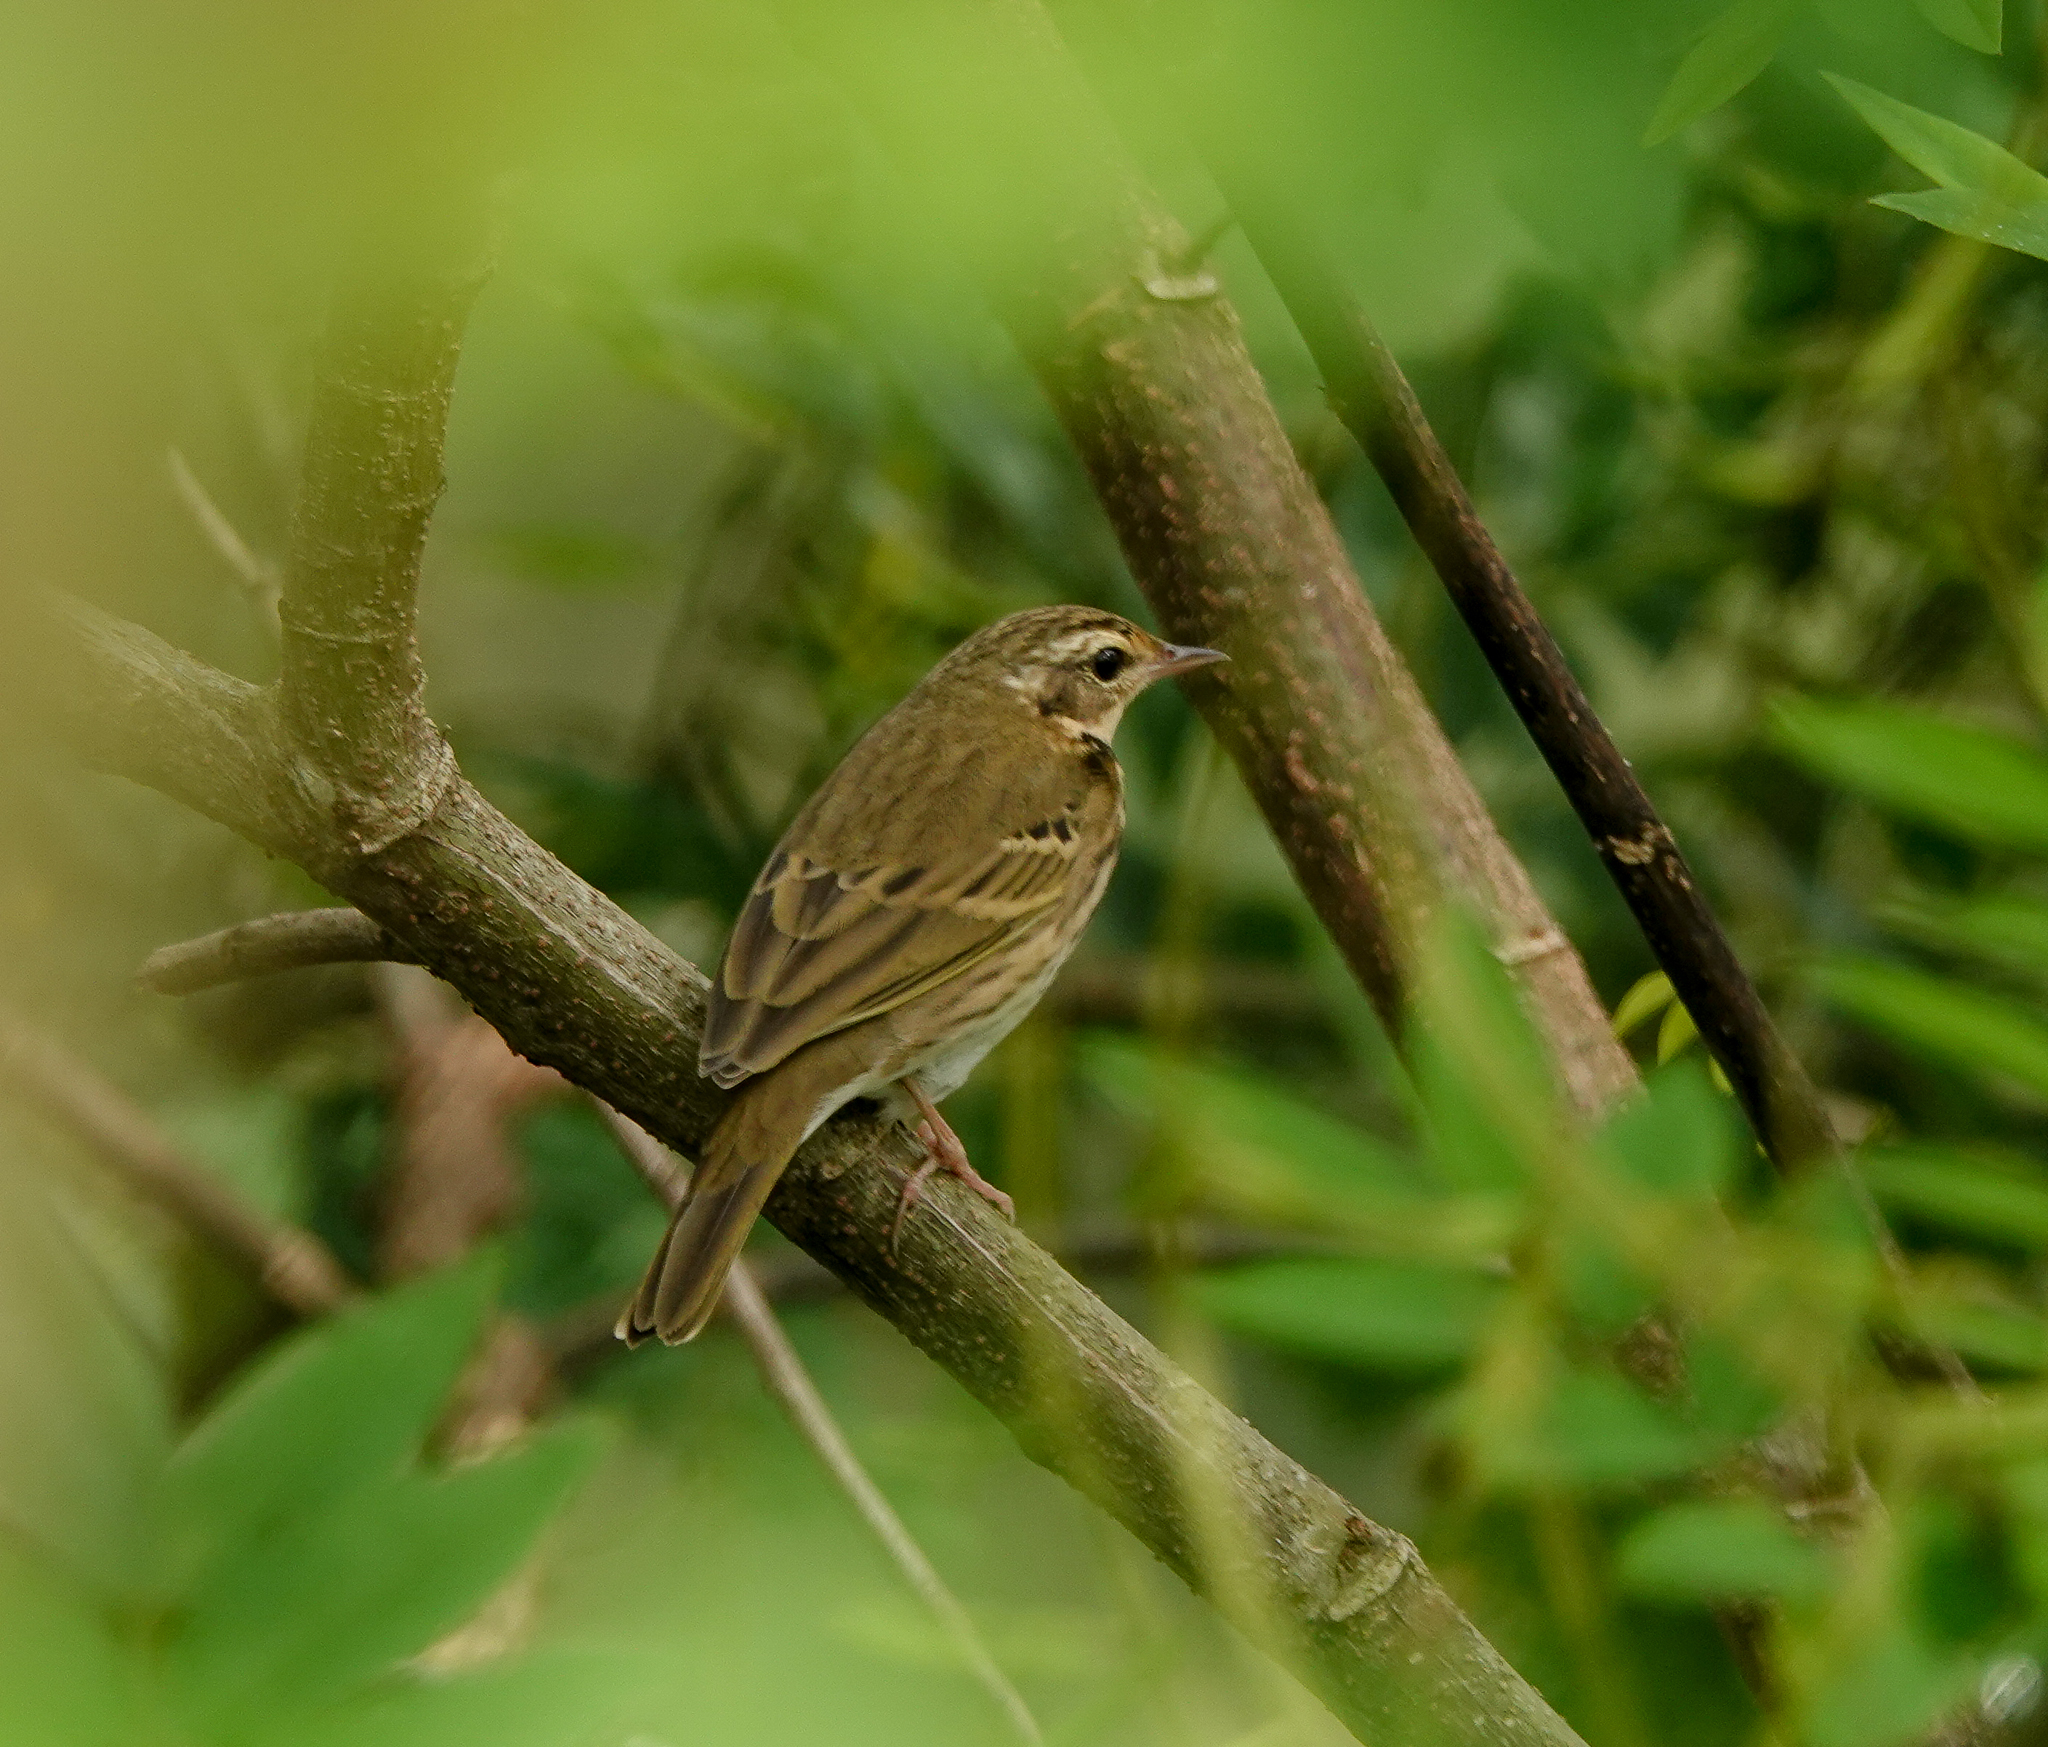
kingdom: Animalia
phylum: Chordata
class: Aves
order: Passeriformes
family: Motacillidae
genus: Anthus
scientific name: Anthus hodgsoni
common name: Olive-backed pipit
